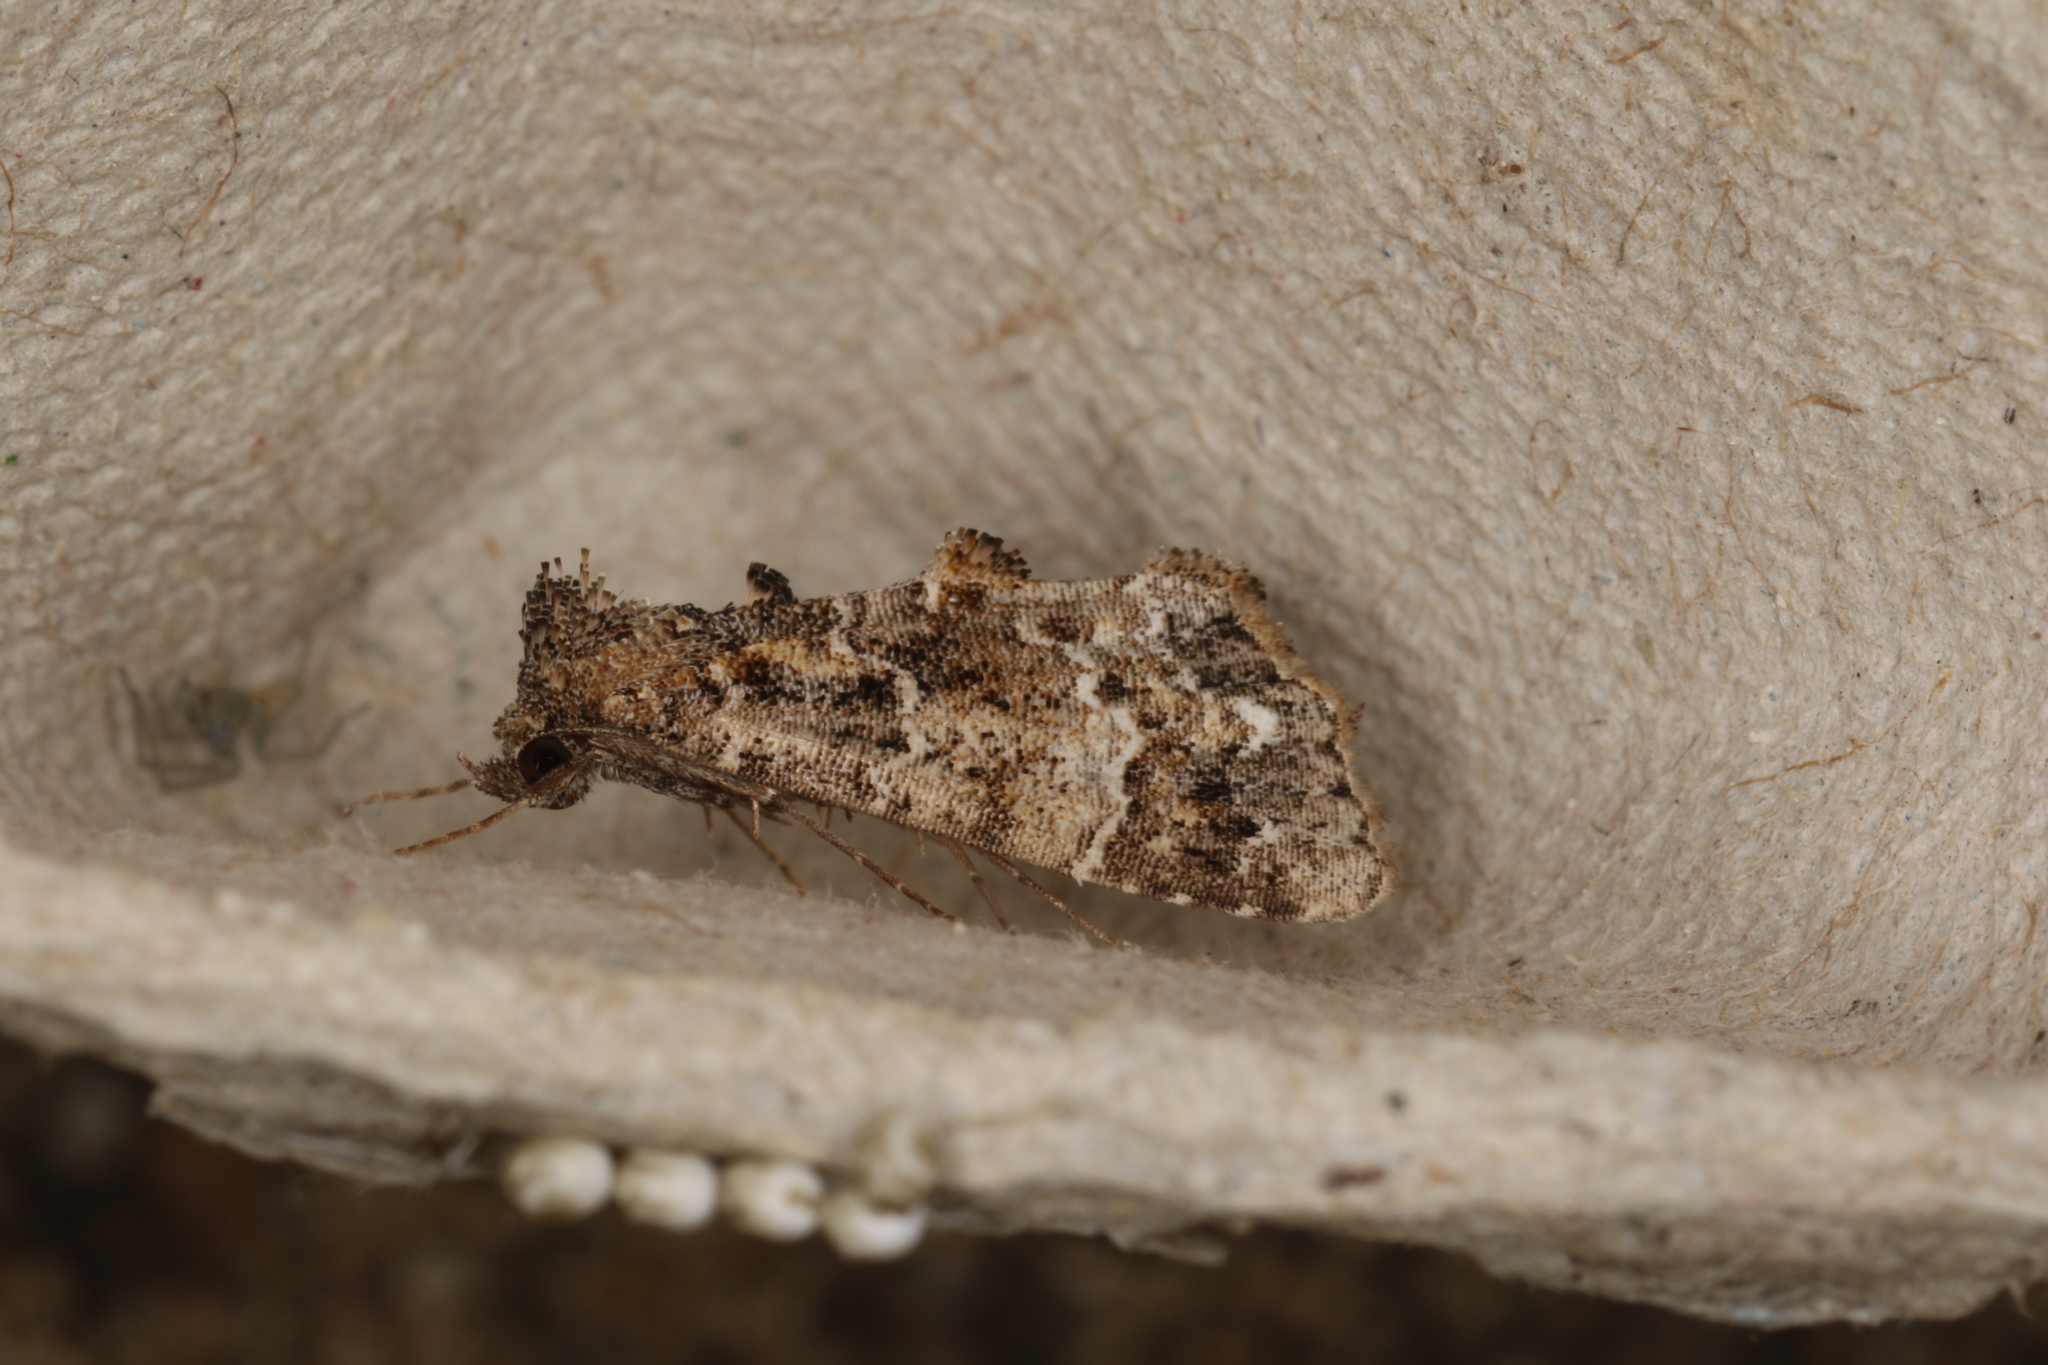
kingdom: Animalia
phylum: Arthropoda
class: Insecta
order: Lepidoptera
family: Erebidae
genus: Arrade
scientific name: Arrade destituta
